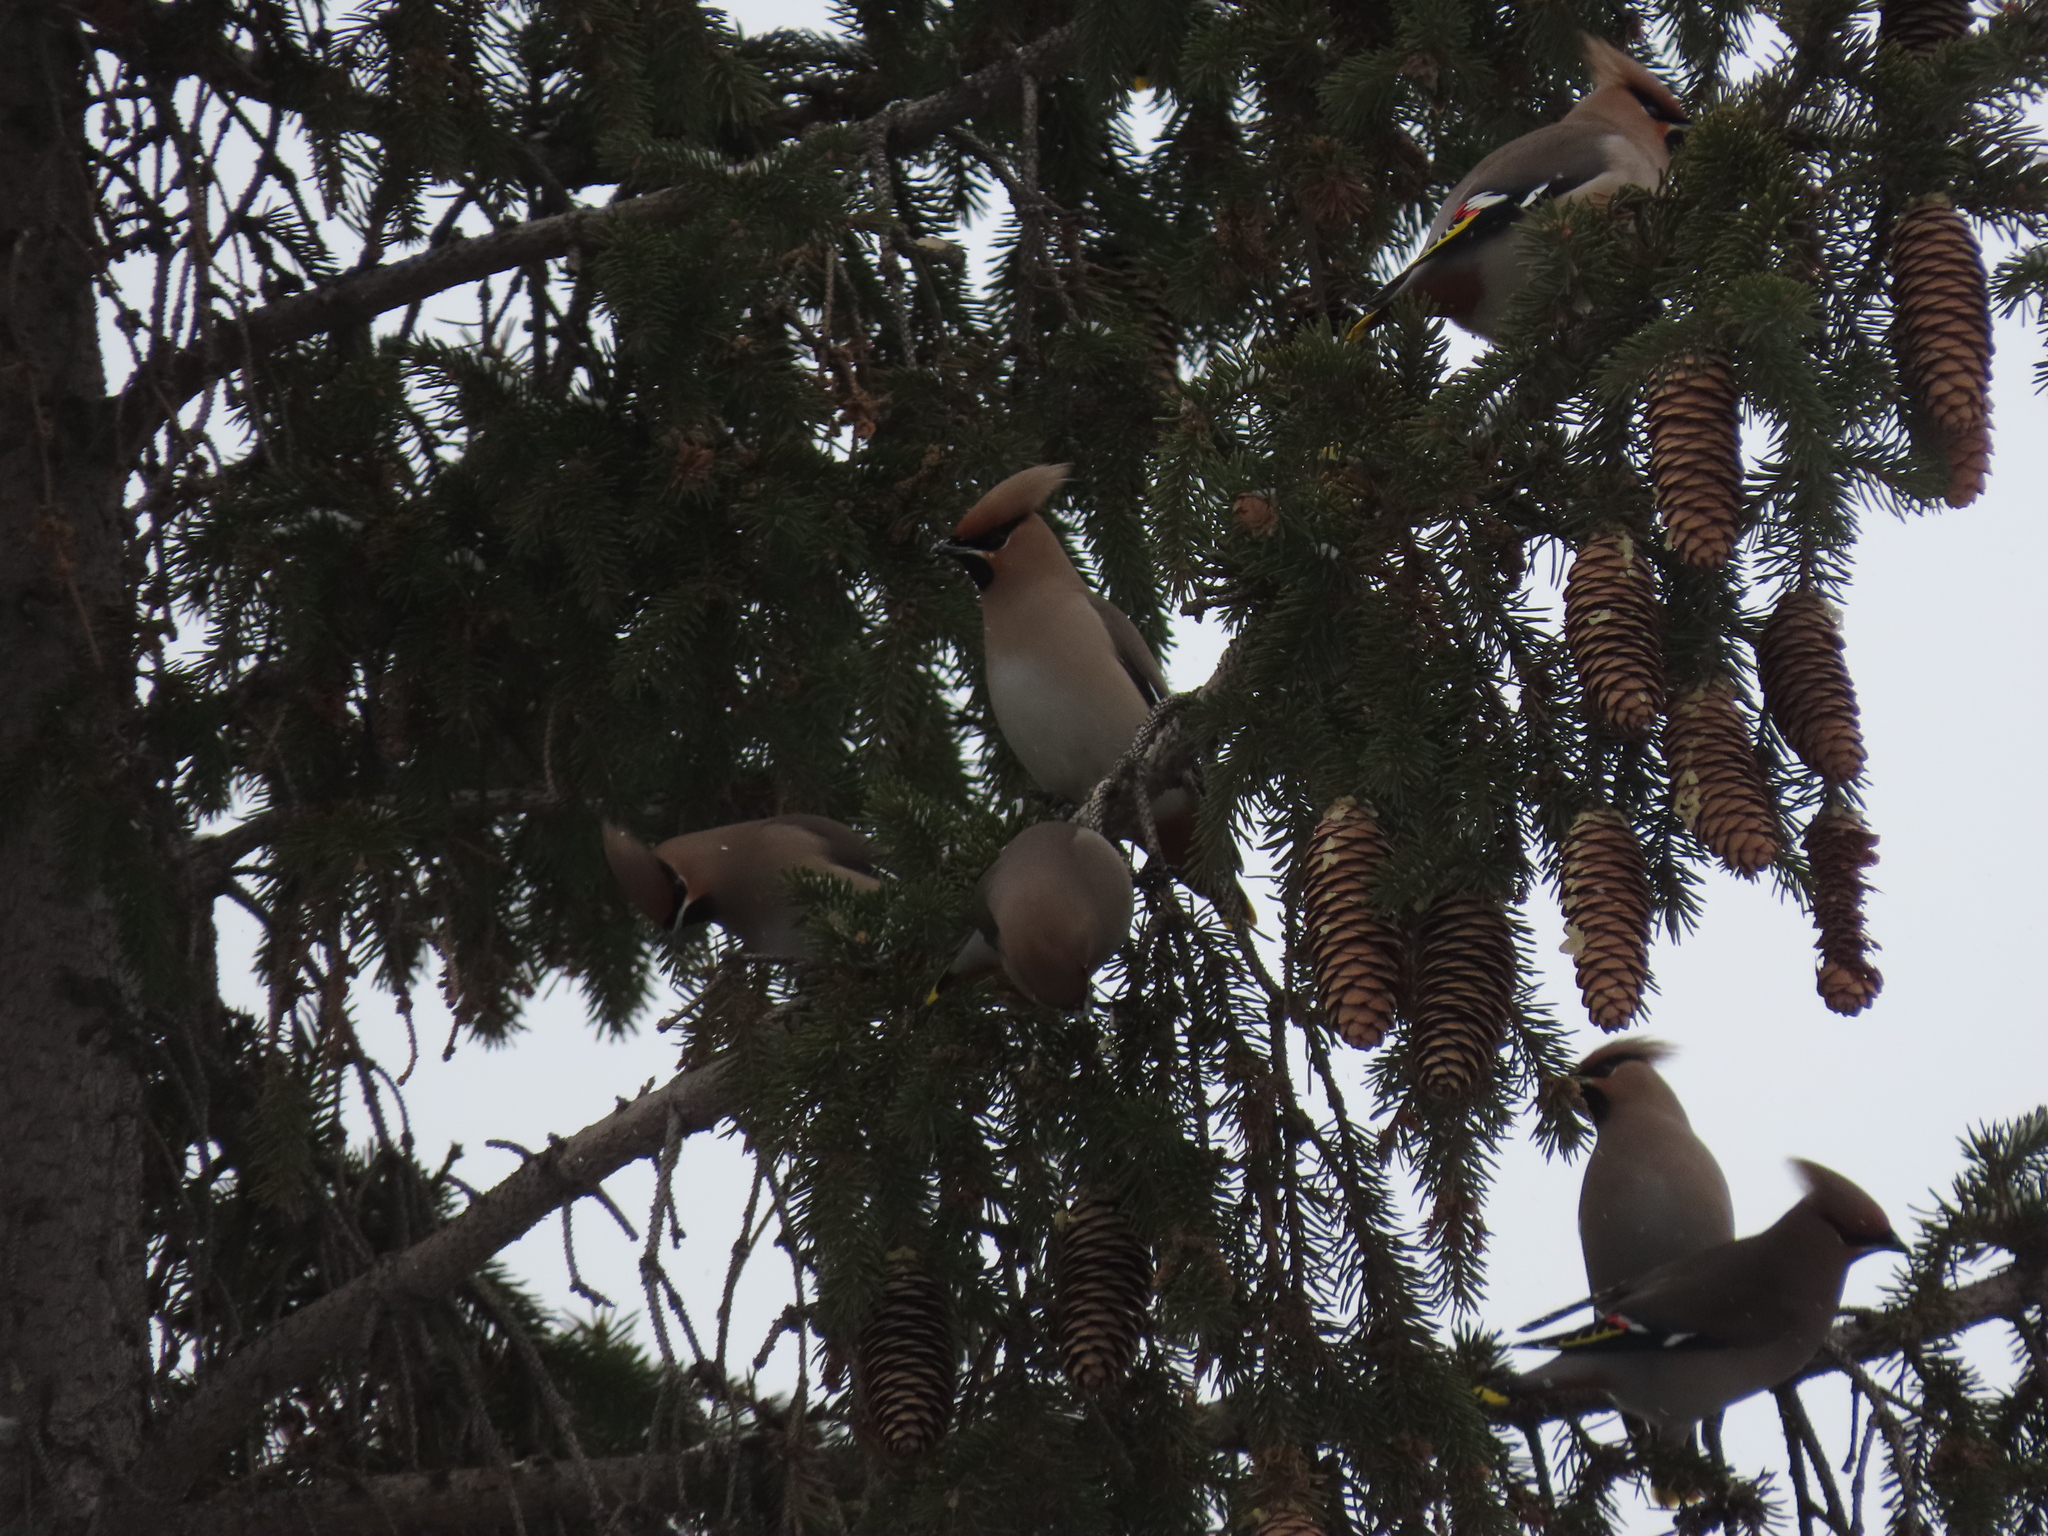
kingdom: Animalia
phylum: Chordata
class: Aves
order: Passeriformes
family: Bombycillidae
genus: Bombycilla
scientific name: Bombycilla garrulus
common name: Bohemian waxwing
